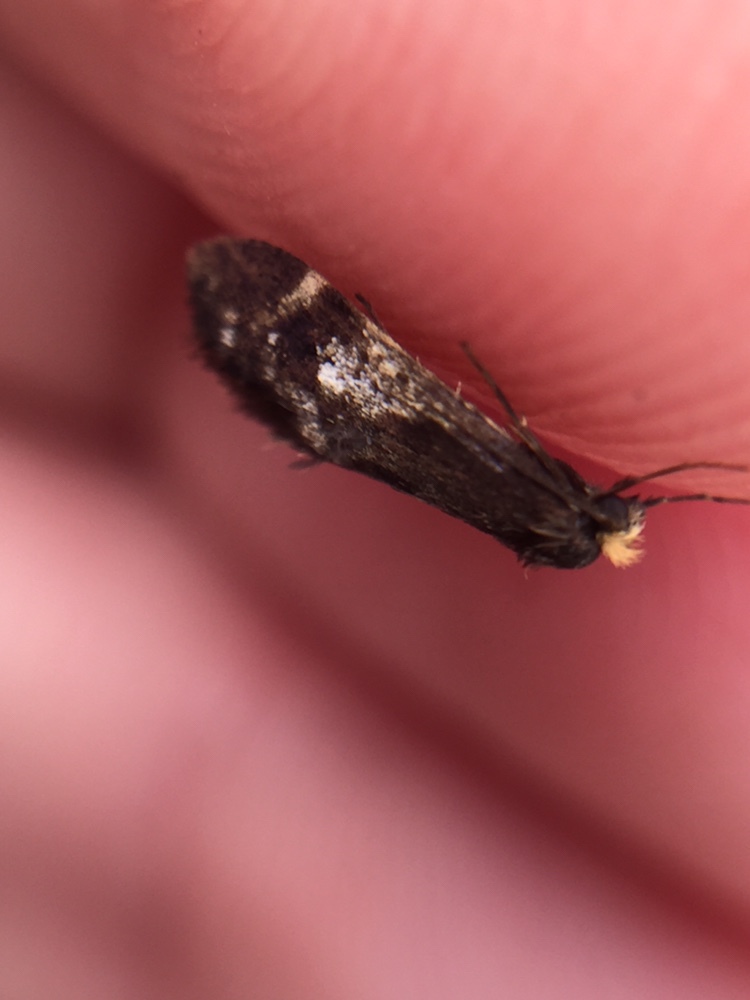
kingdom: Animalia
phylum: Arthropoda
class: Insecta
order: Lepidoptera
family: Psychidae
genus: Lepidoscia
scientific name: Lepidoscia lainodes
